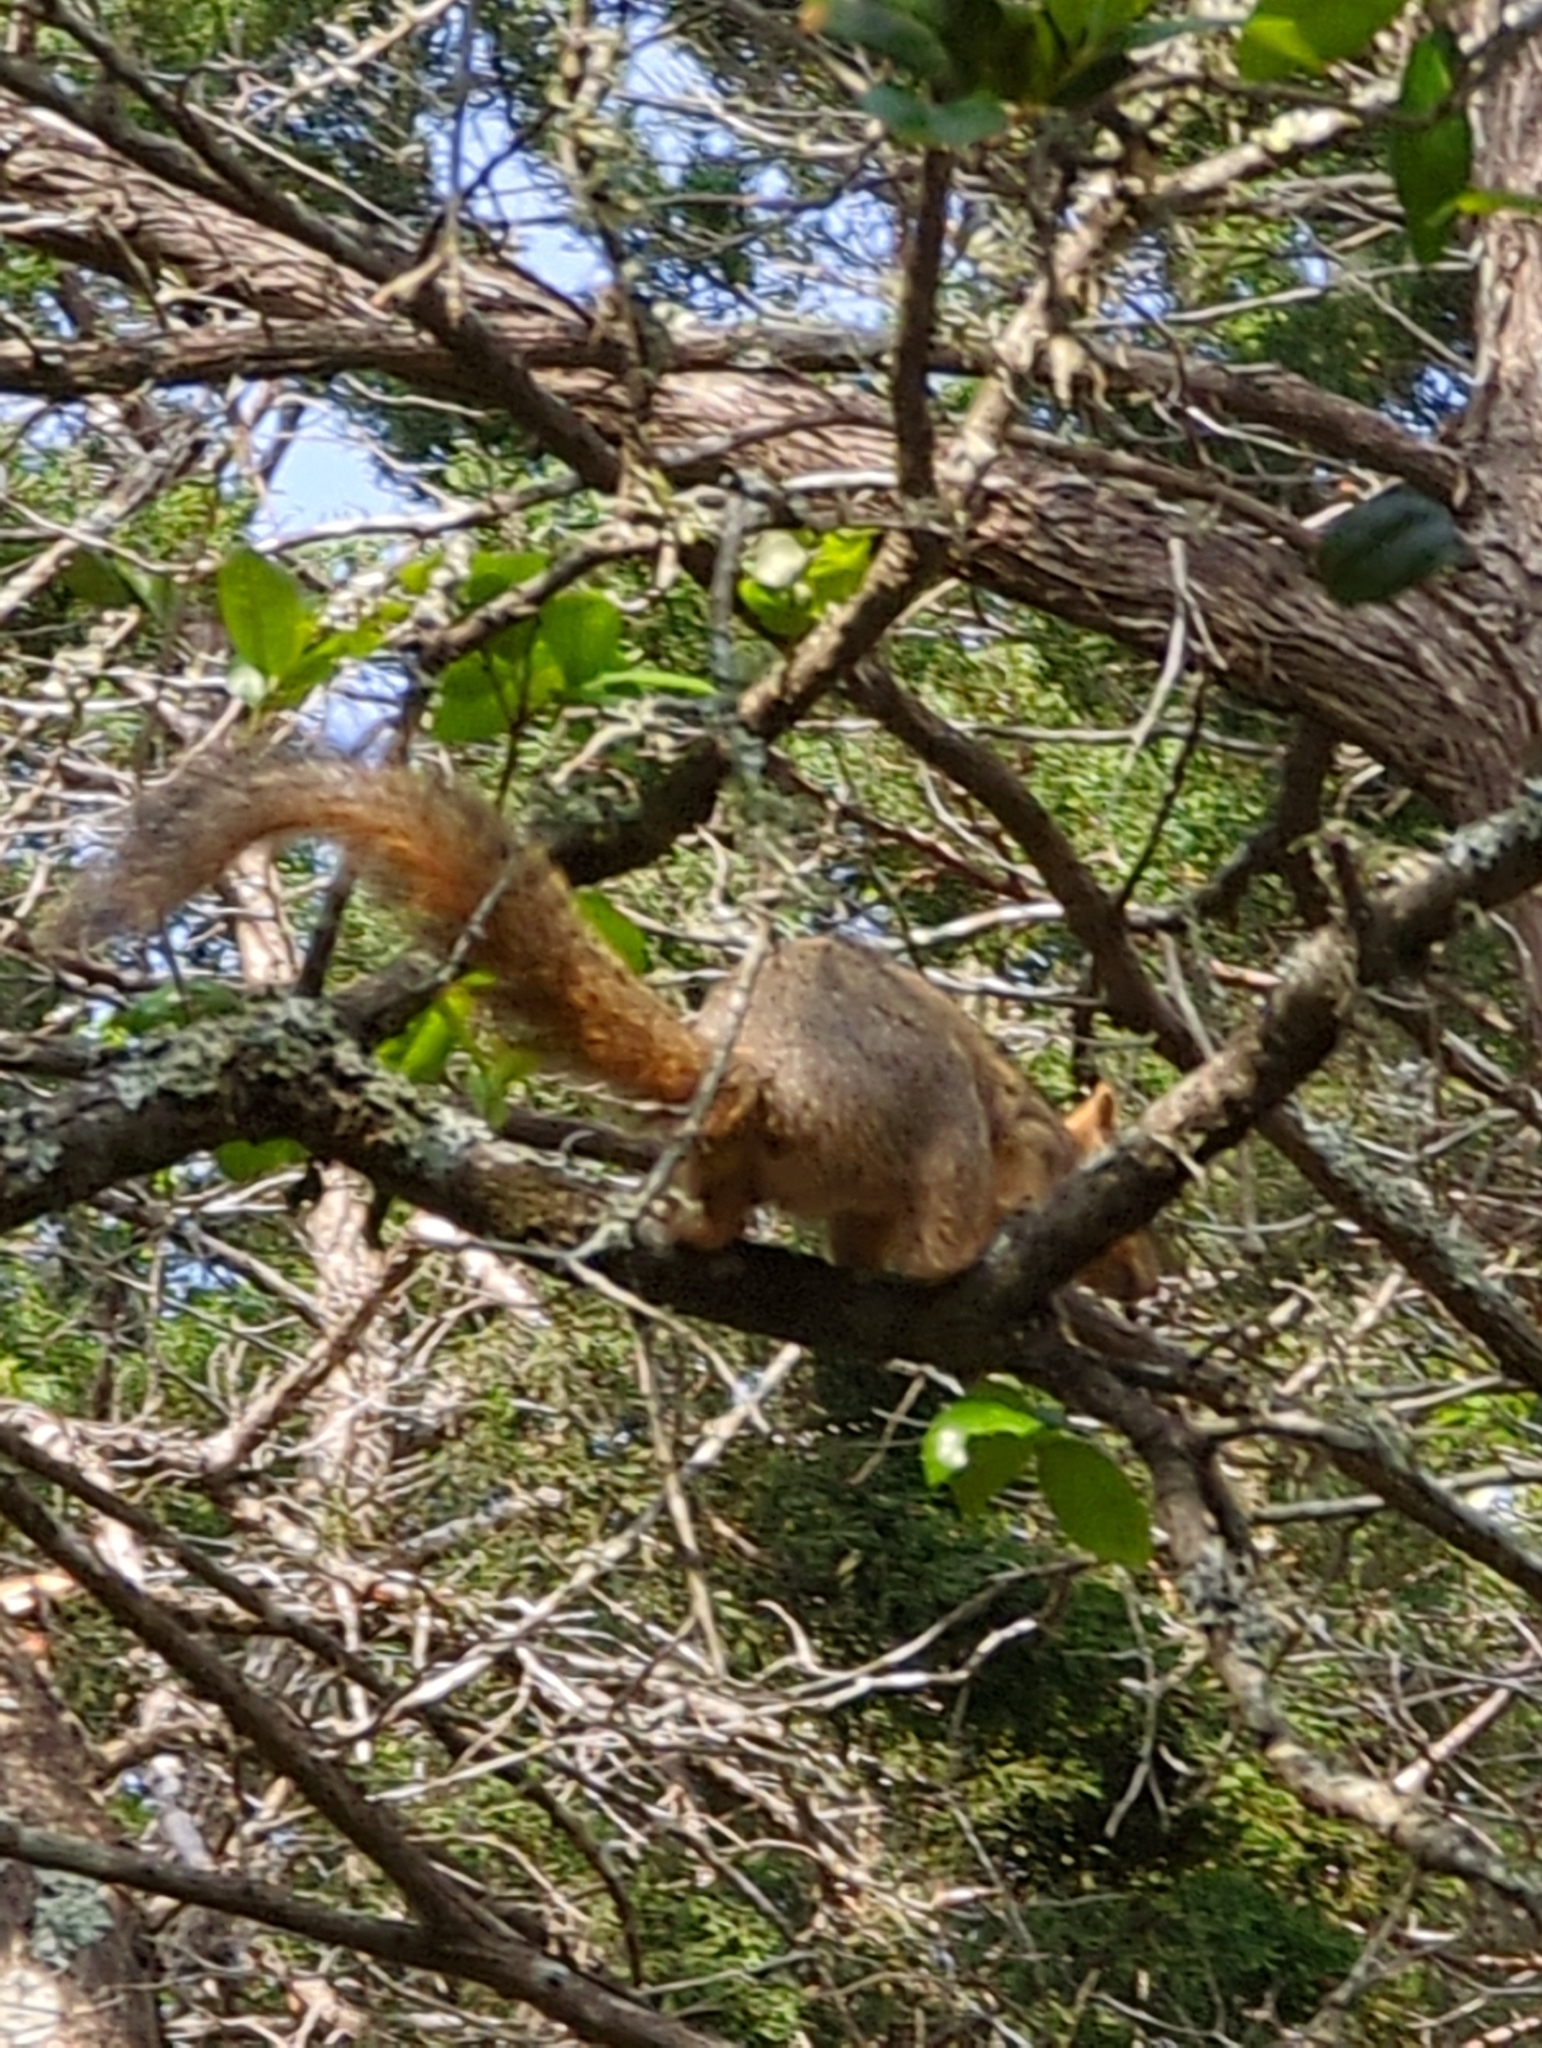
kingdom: Animalia
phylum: Chordata
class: Mammalia
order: Rodentia
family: Sciuridae
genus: Sciurus
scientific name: Sciurus niger
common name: Fox squirrel
